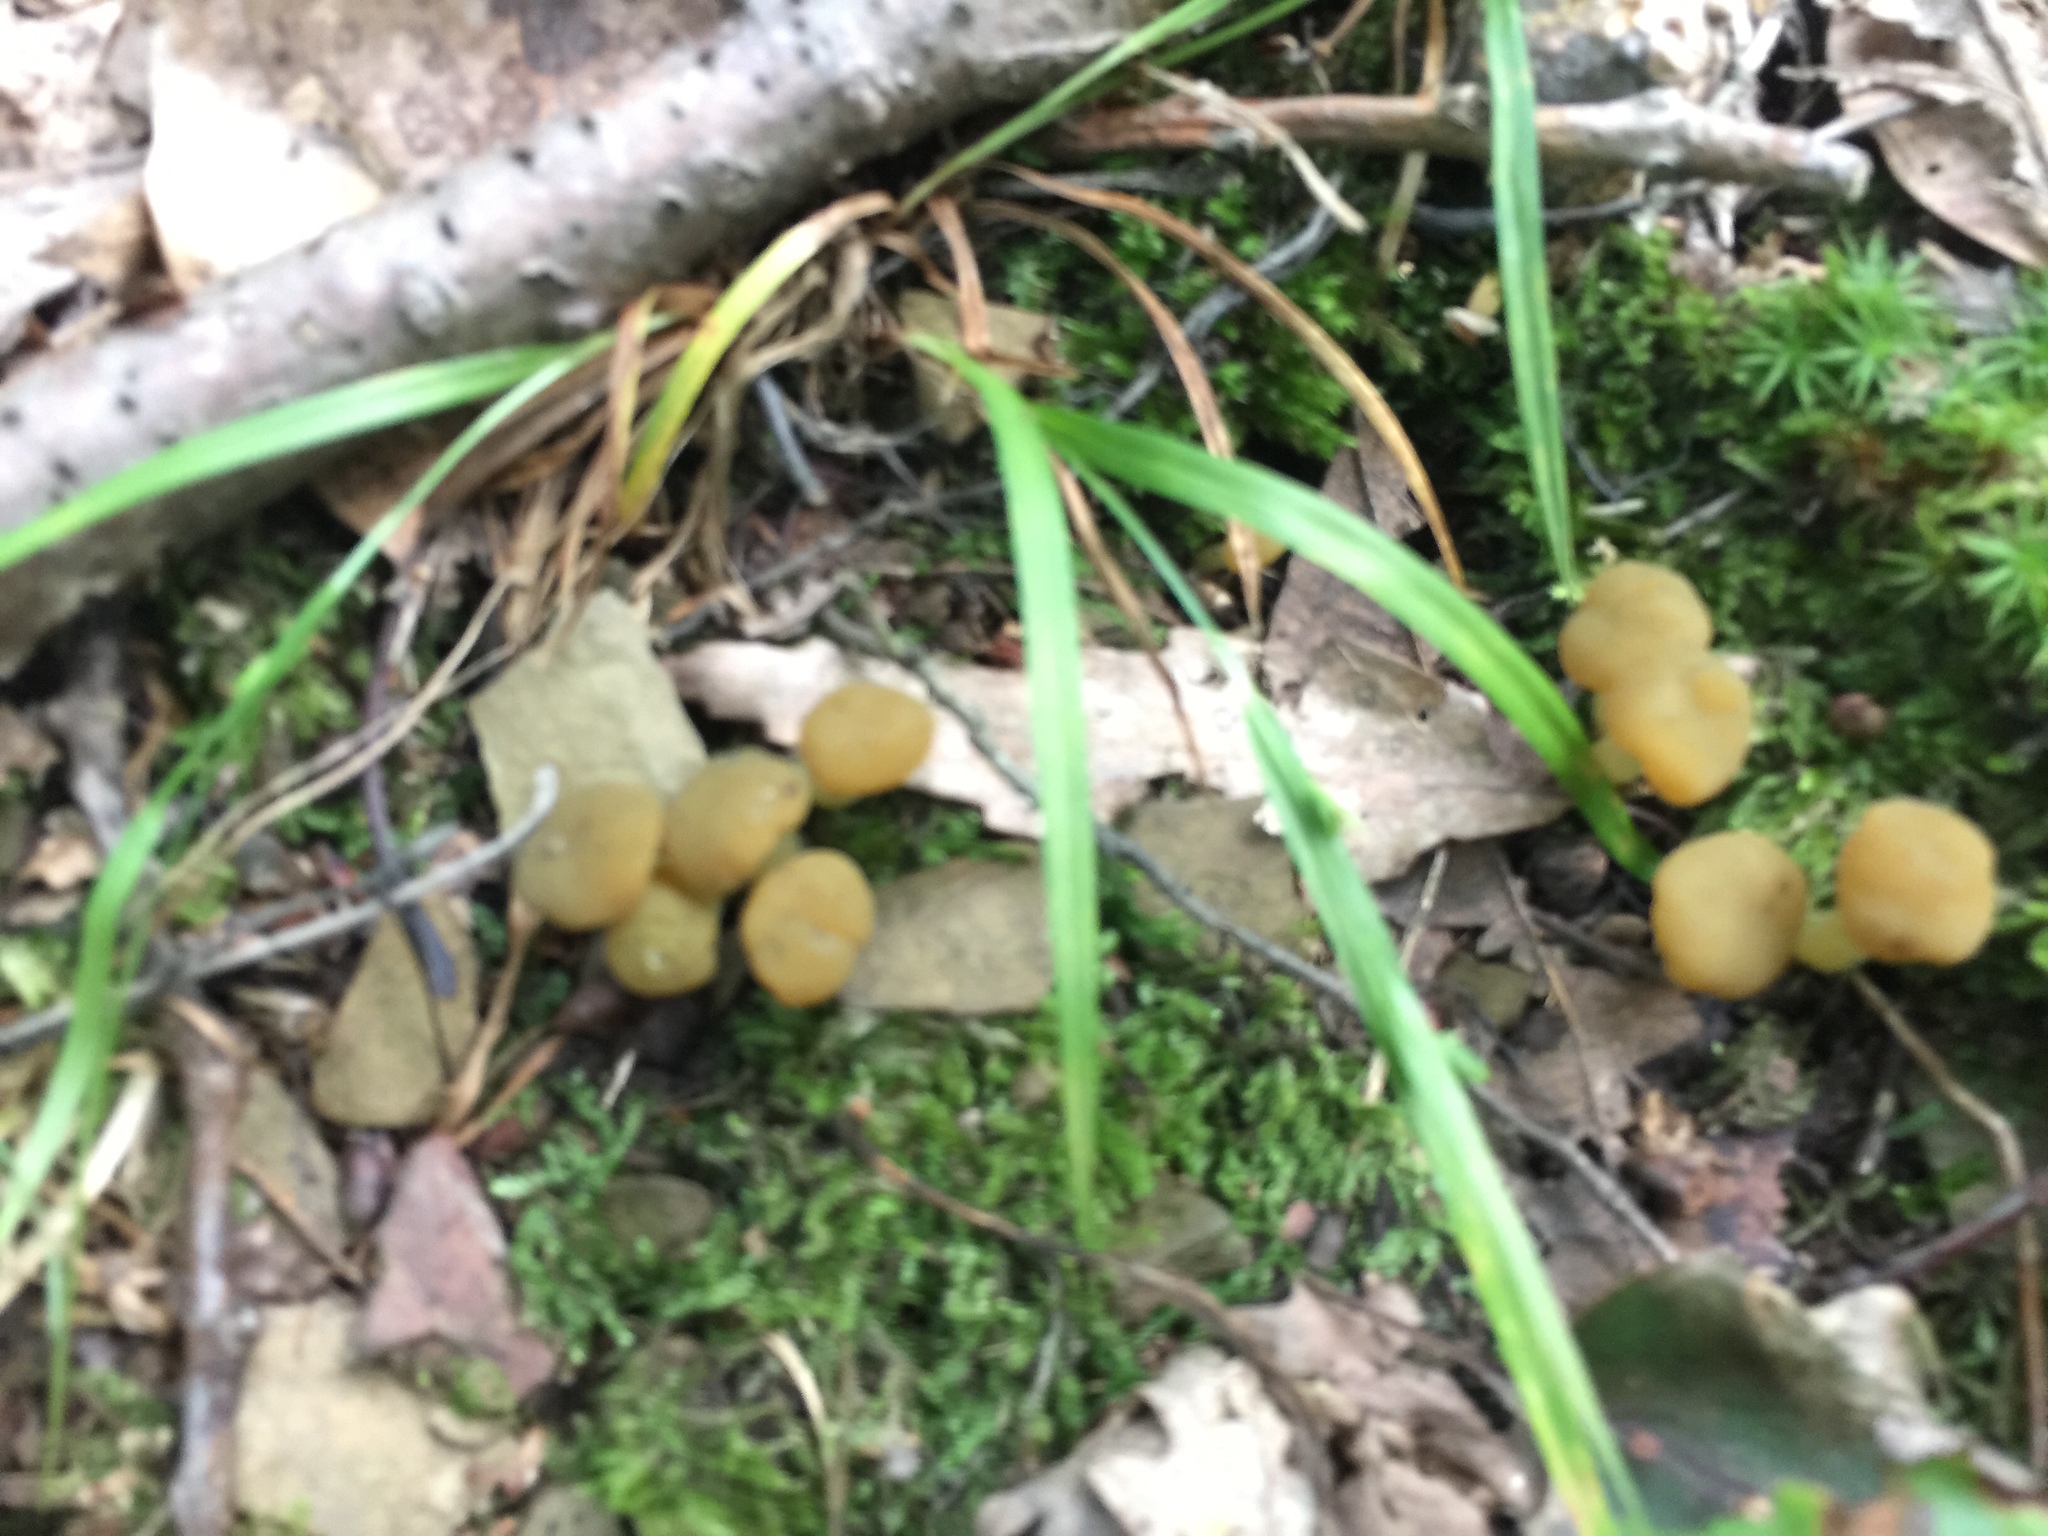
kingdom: Fungi
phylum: Ascomycota
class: Leotiomycetes
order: Leotiales
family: Leotiaceae
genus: Leotia
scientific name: Leotia lubrica
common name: Jellybaby
